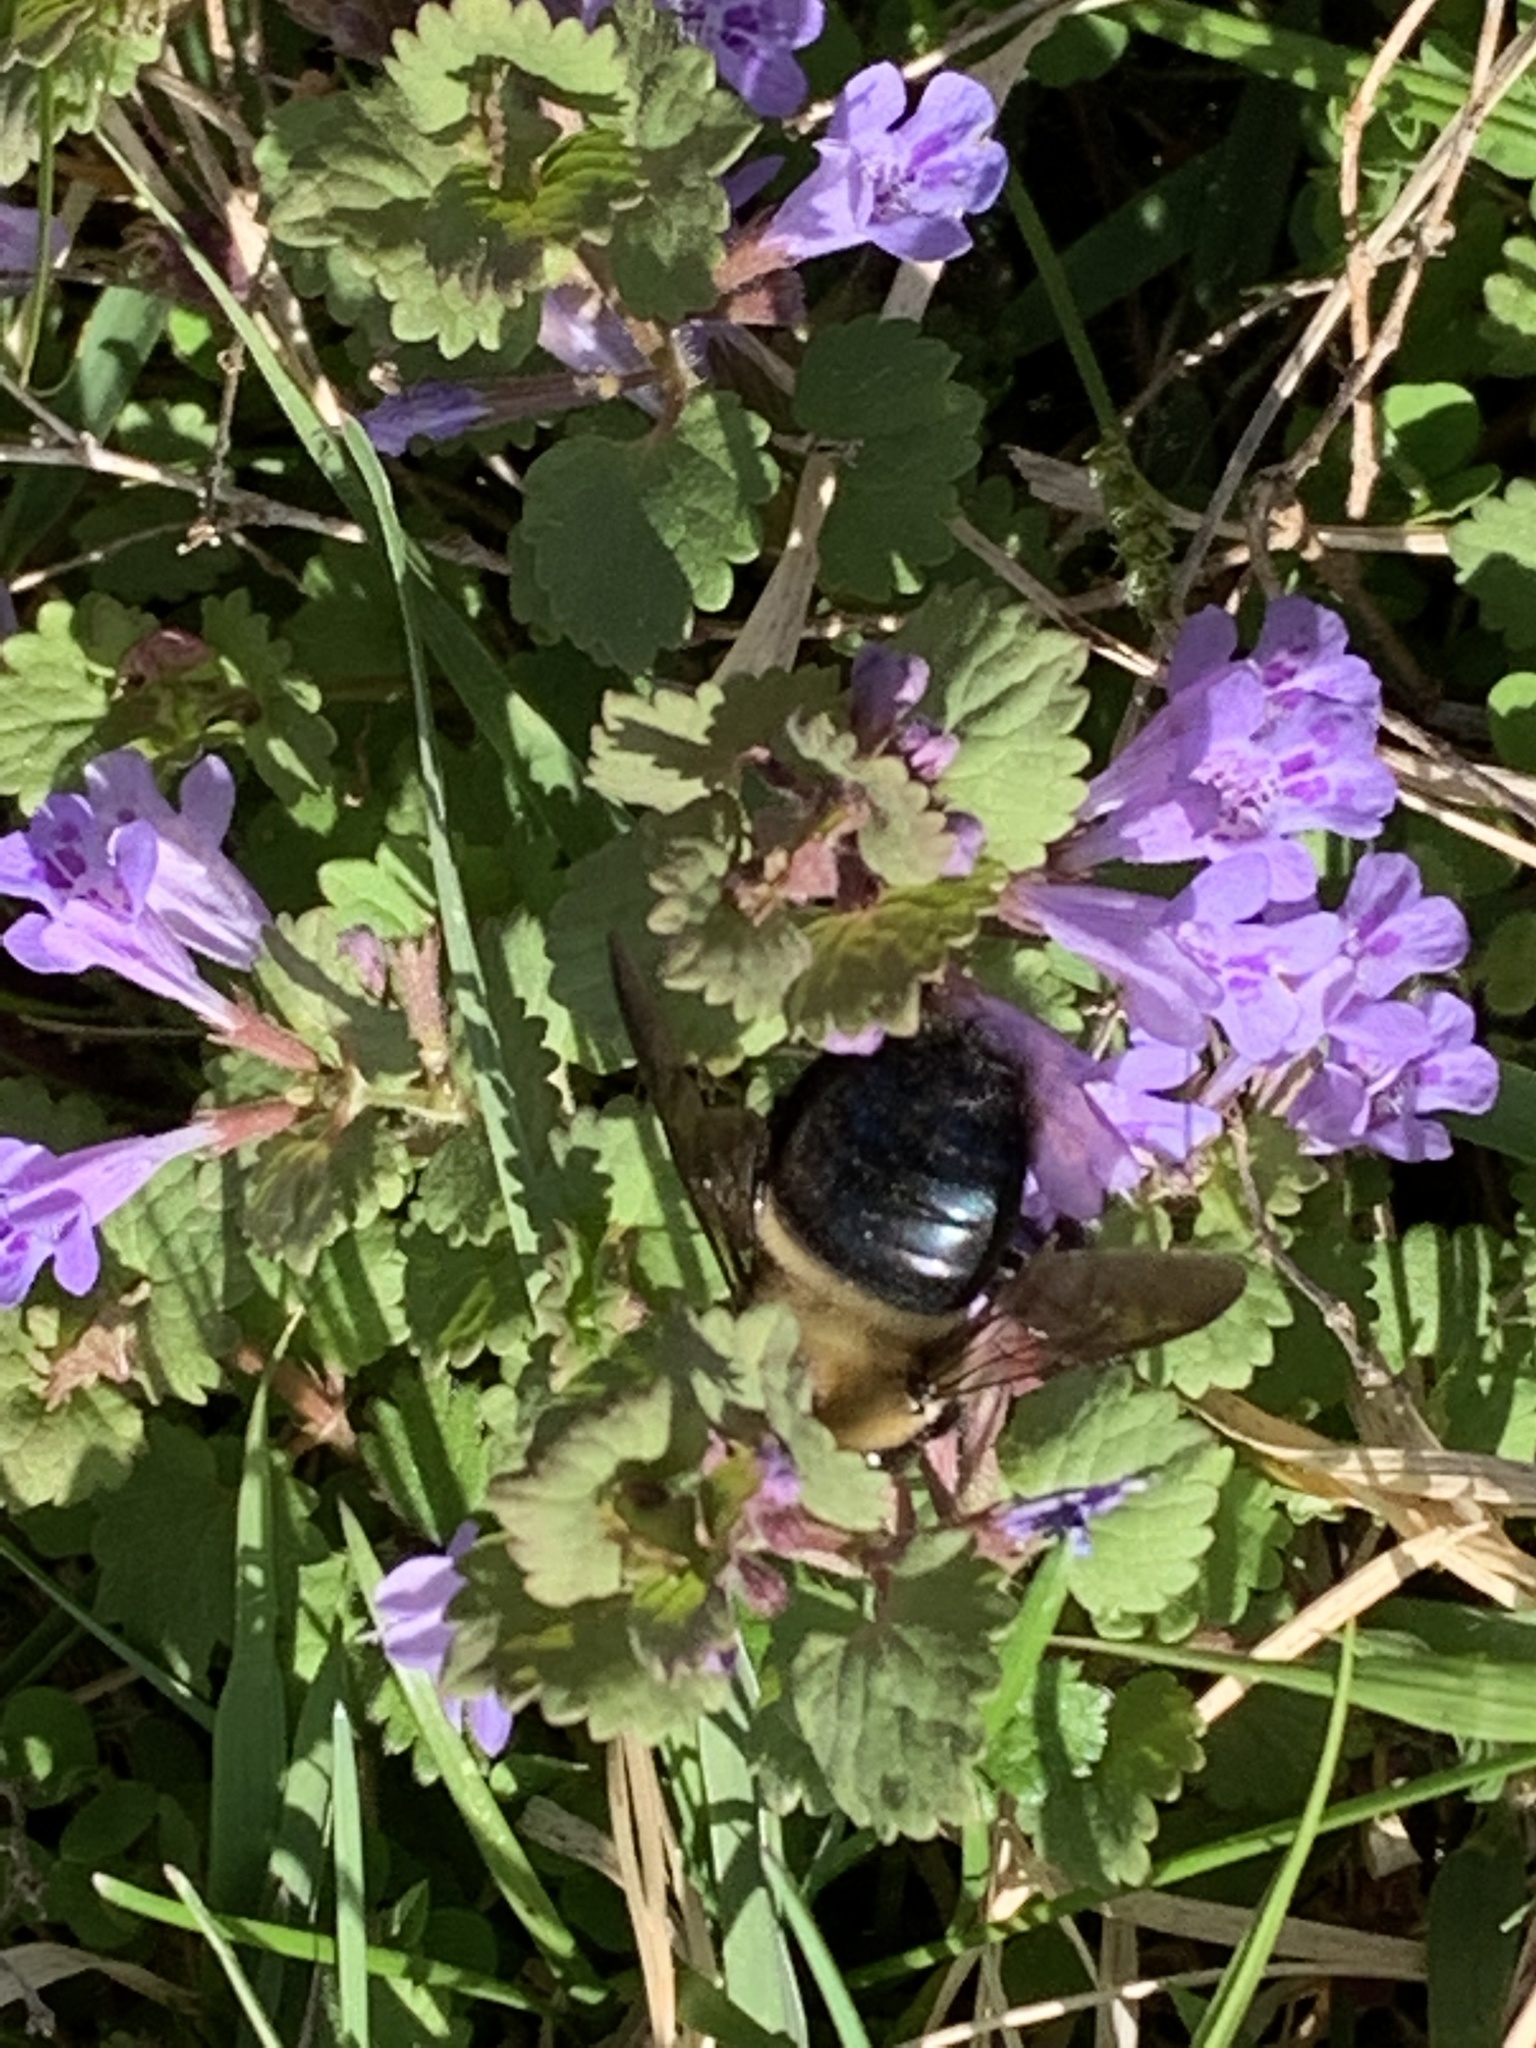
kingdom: Animalia
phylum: Arthropoda
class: Insecta
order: Hymenoptera
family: Apidae
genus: Xylocopa
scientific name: Xylocopa virginica
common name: Carpenter bee
